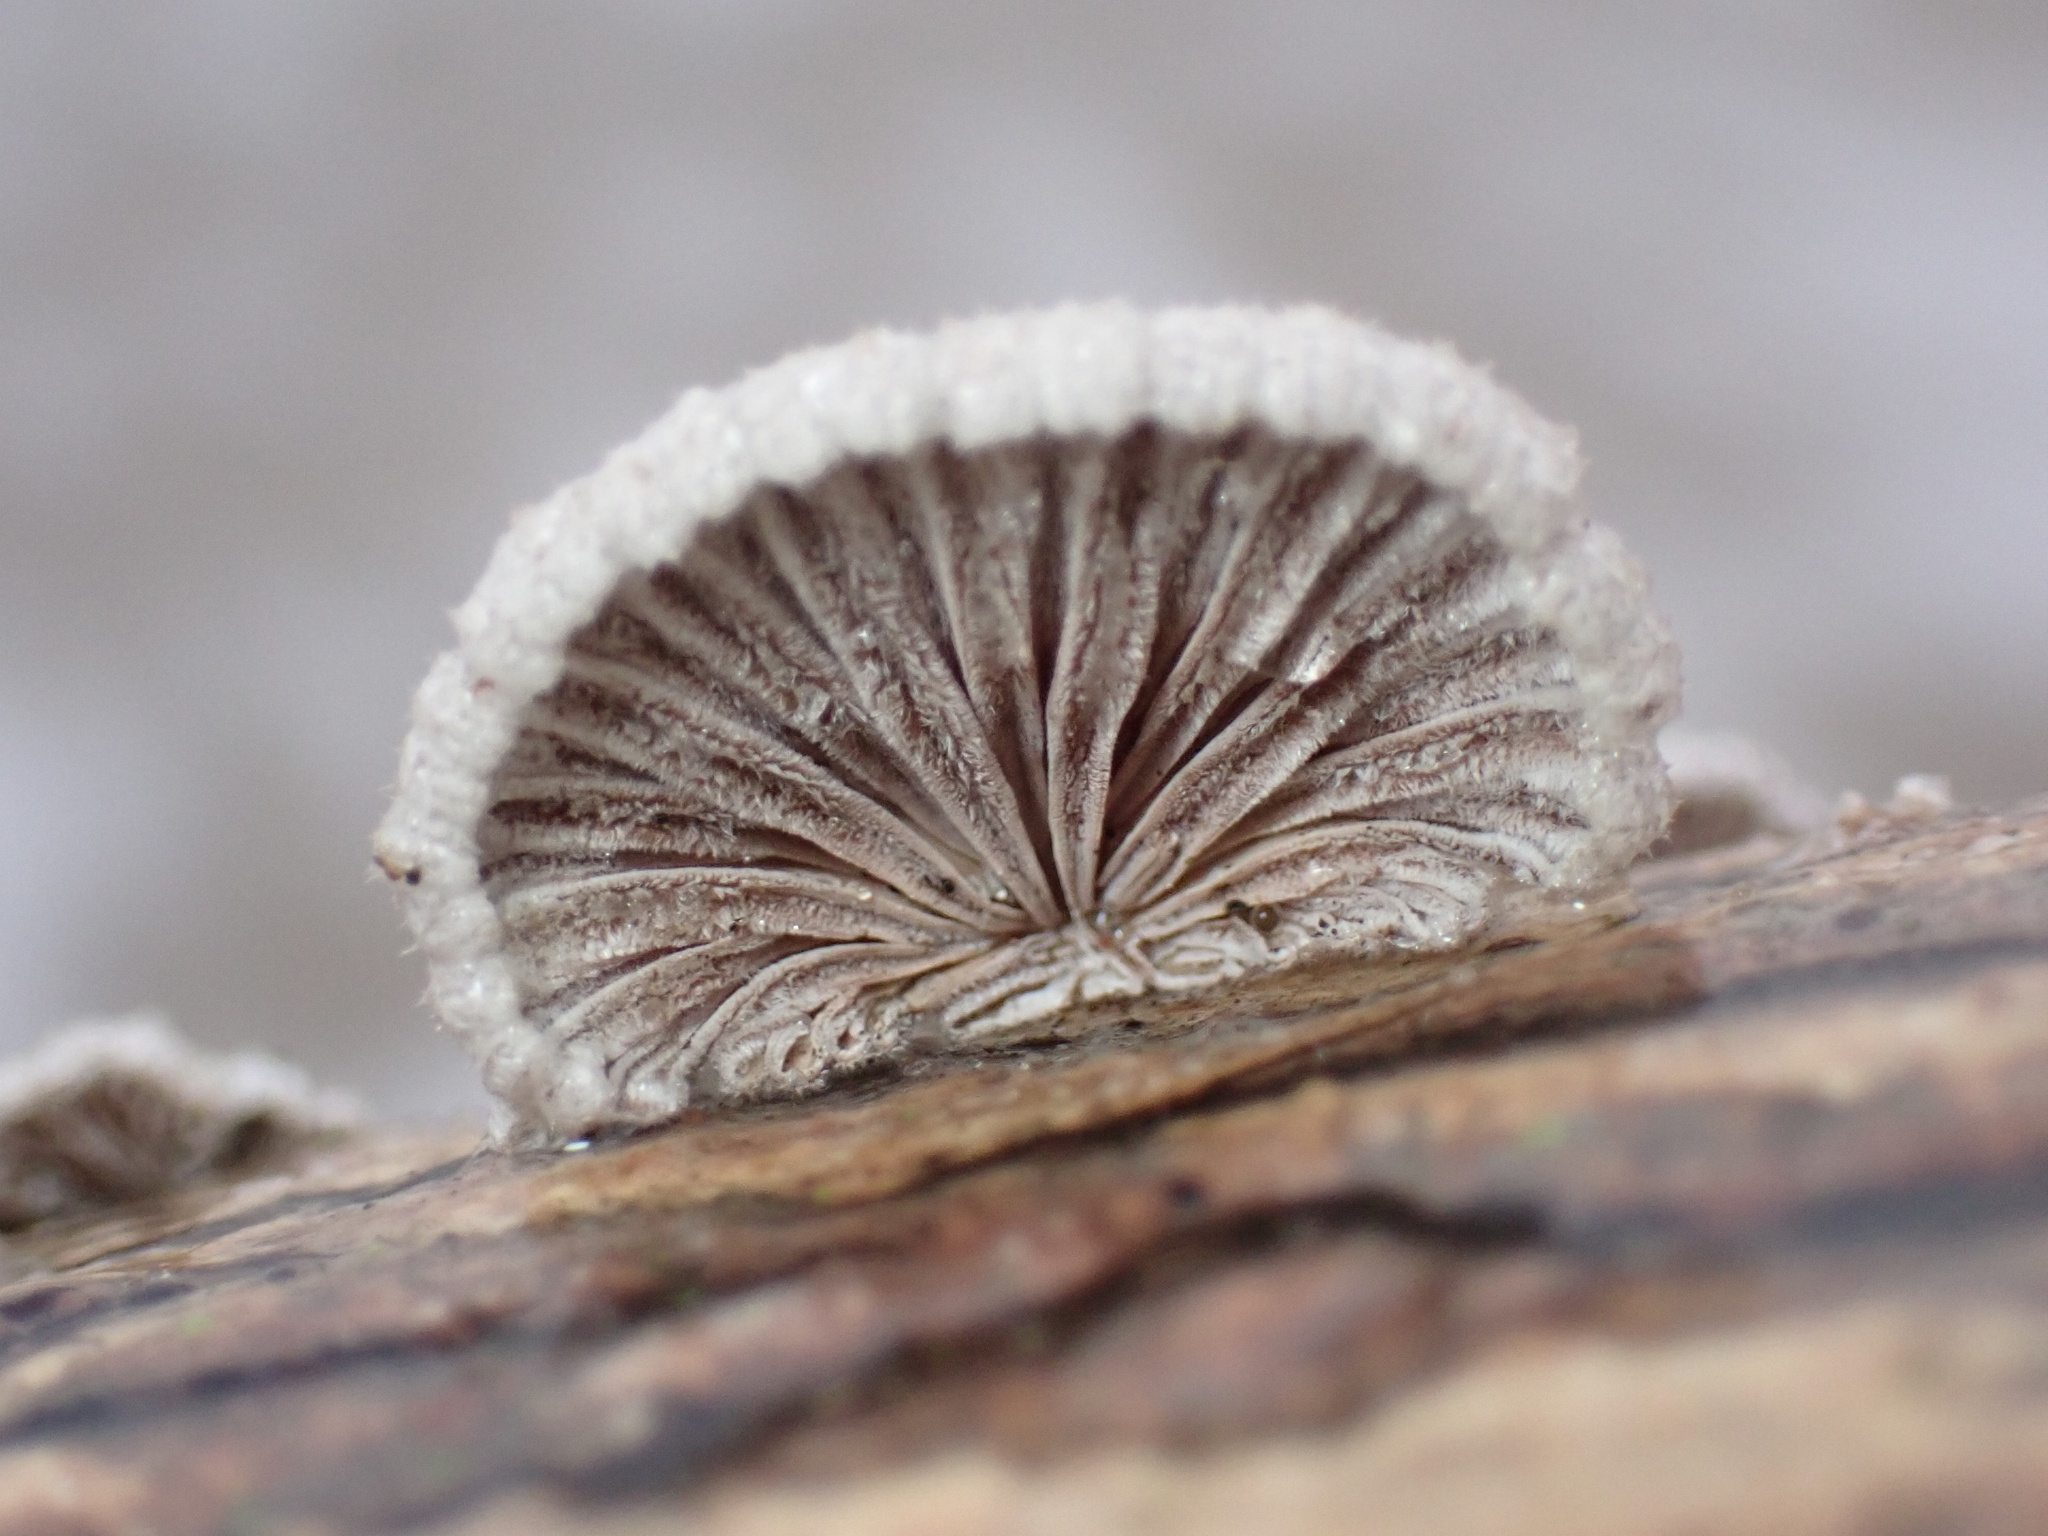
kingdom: Fungi
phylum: Basidiomycota
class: Agaricomycetes
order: Agaricales
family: Schizophyllaceae
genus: Schizophyllum
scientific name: Schizophyllum commune
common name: Common porecrust
